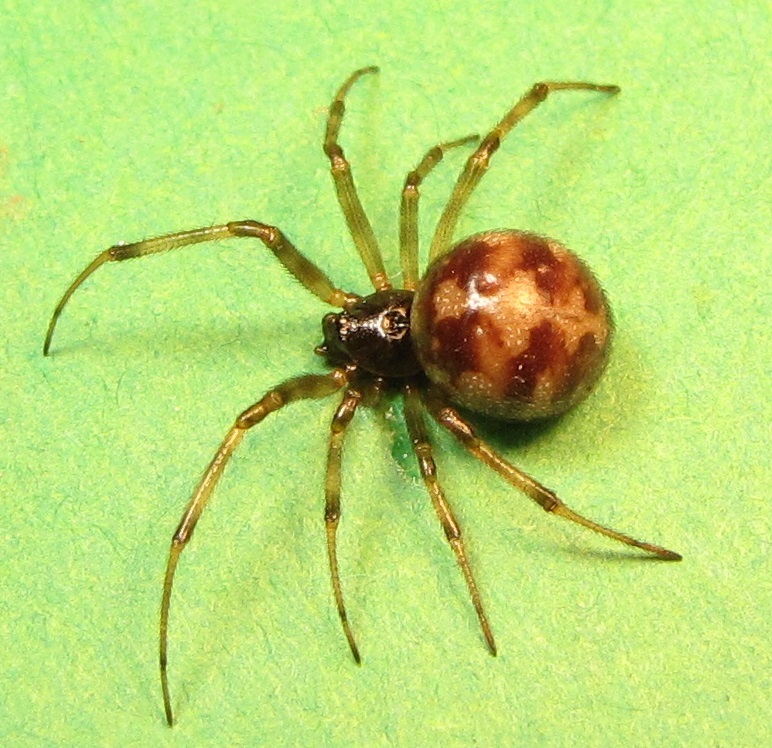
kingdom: Animalia
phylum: Arthropoda
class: Arachnida
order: Araneae
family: Theridiidae
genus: Steatoda
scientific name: Steatoda triangulosa
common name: Triangulate bud spider
